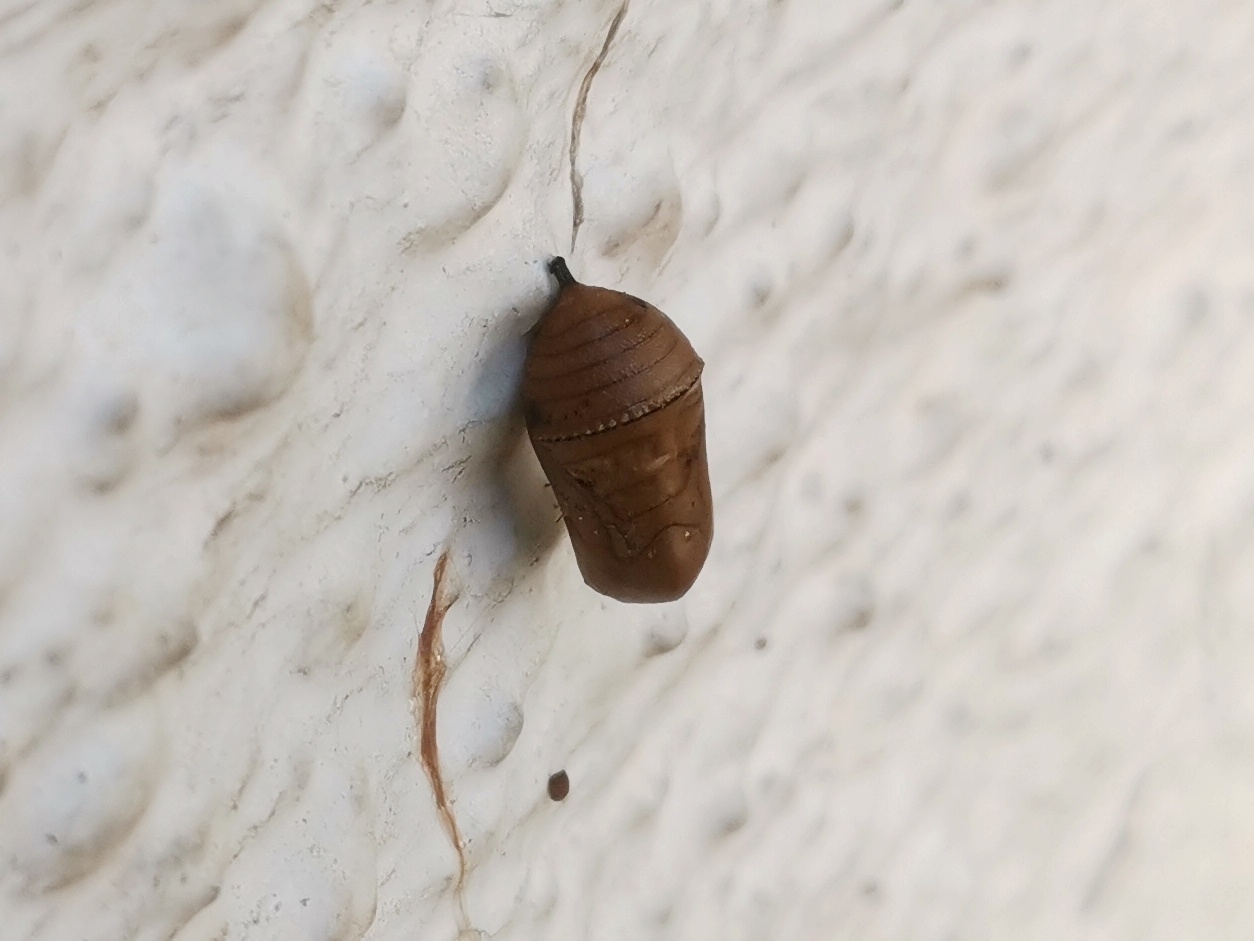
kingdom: Animalia
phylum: Arthropoda
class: Insecta
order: Lepidoptera
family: Nymphalidae
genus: Danaus
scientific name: Danaus chrysippus
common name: Plain tiger
